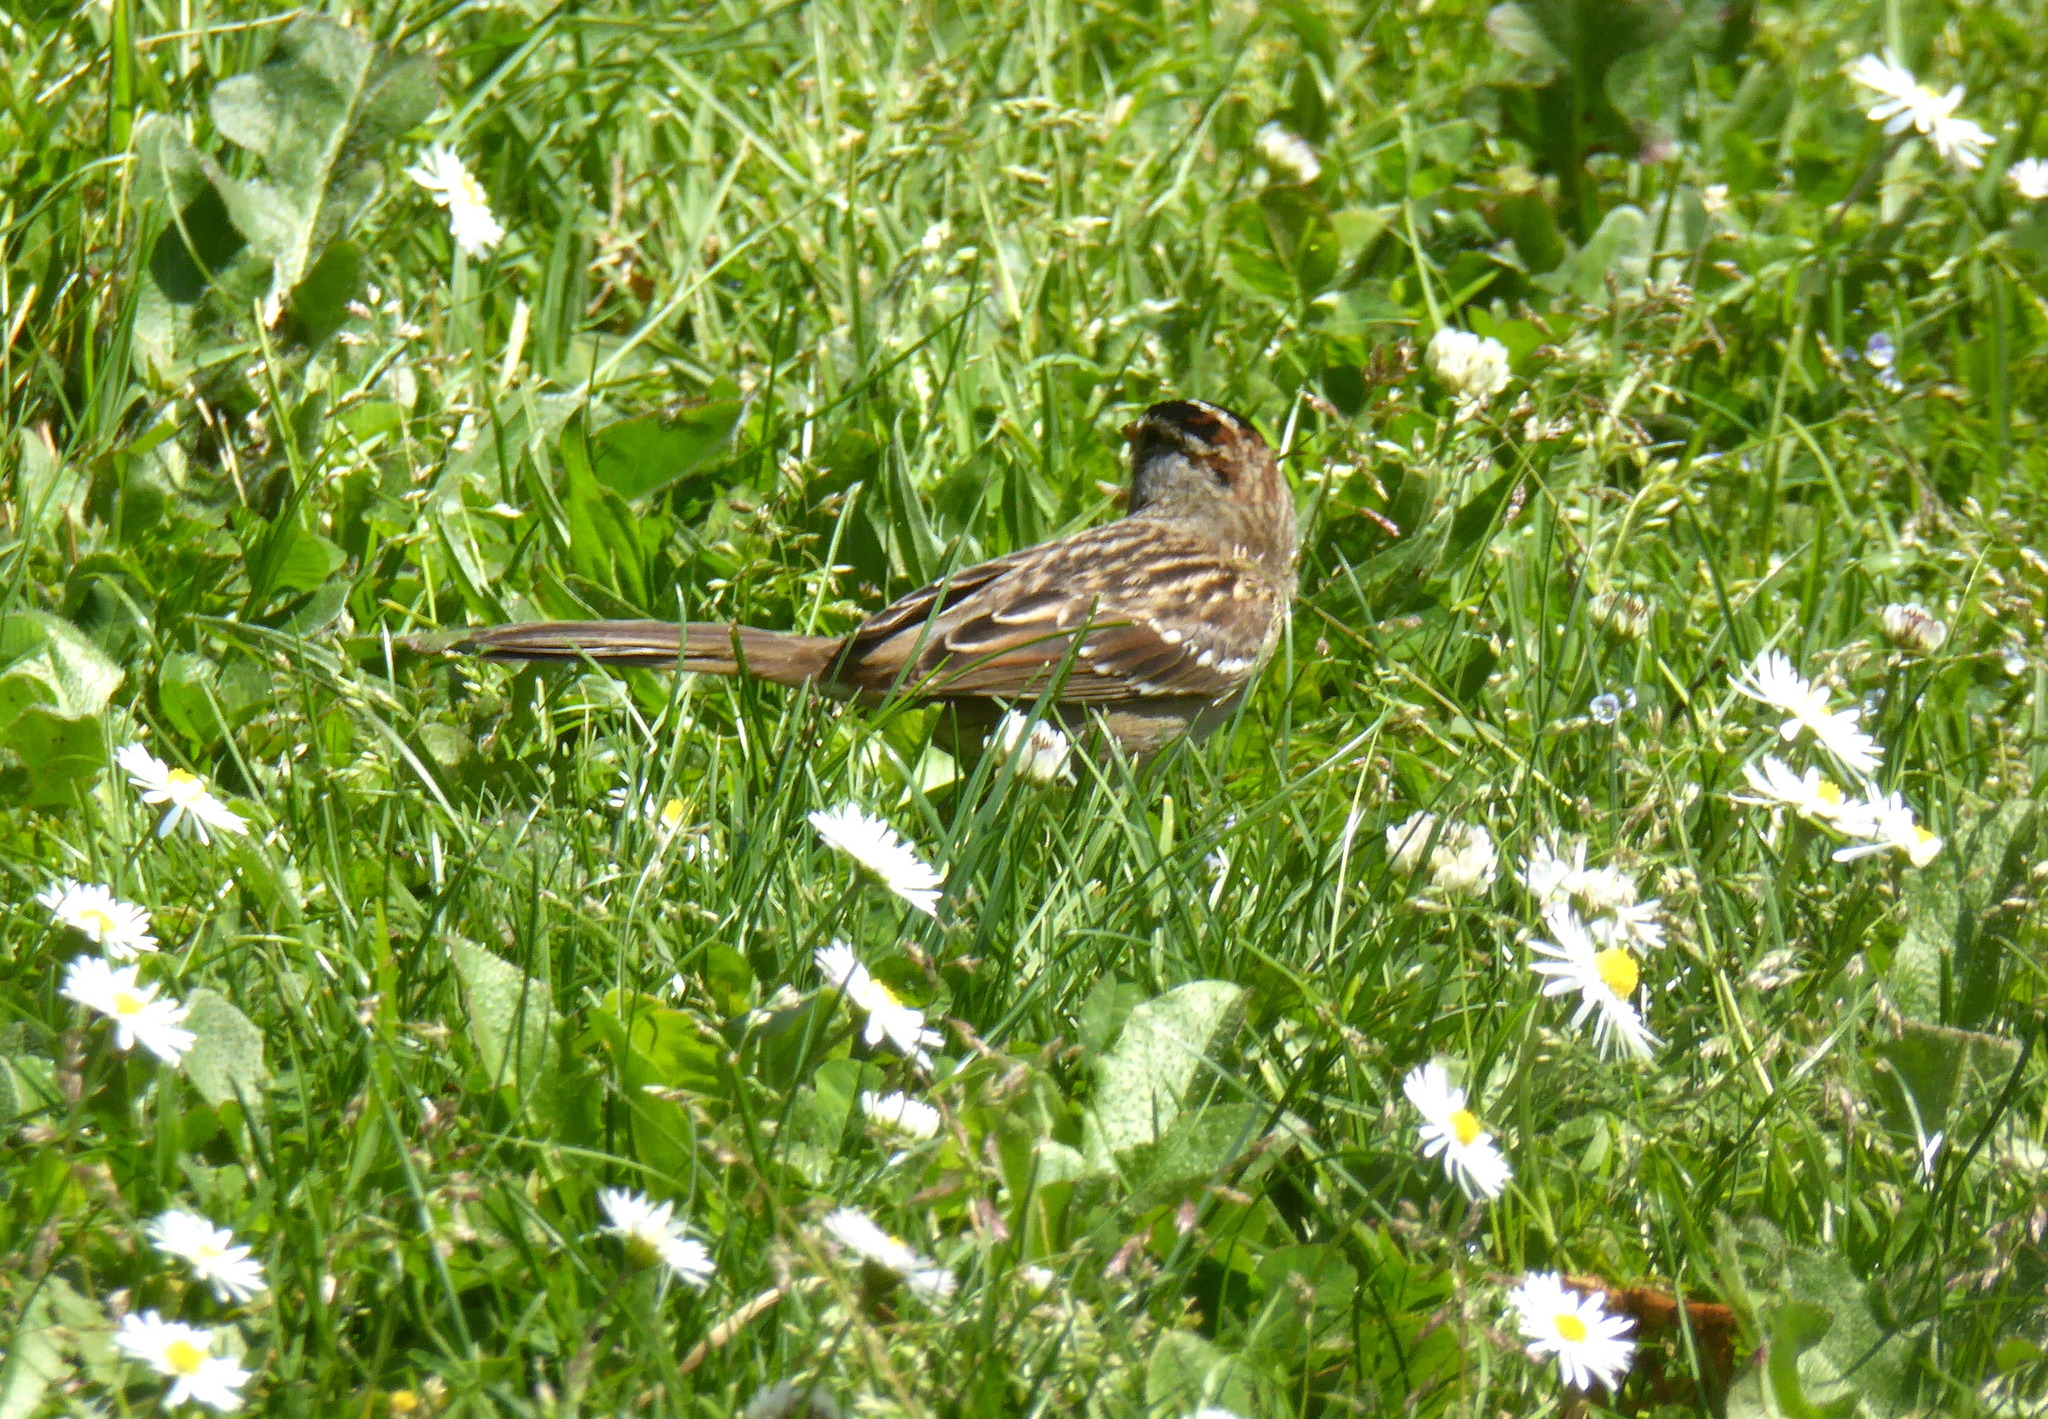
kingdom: Animalia
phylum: Chordata
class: Aves
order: Passeriformes
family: Passerellidae
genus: Zonotrichia
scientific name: Zonotrichia leucophrys
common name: White-crowned sparrow
